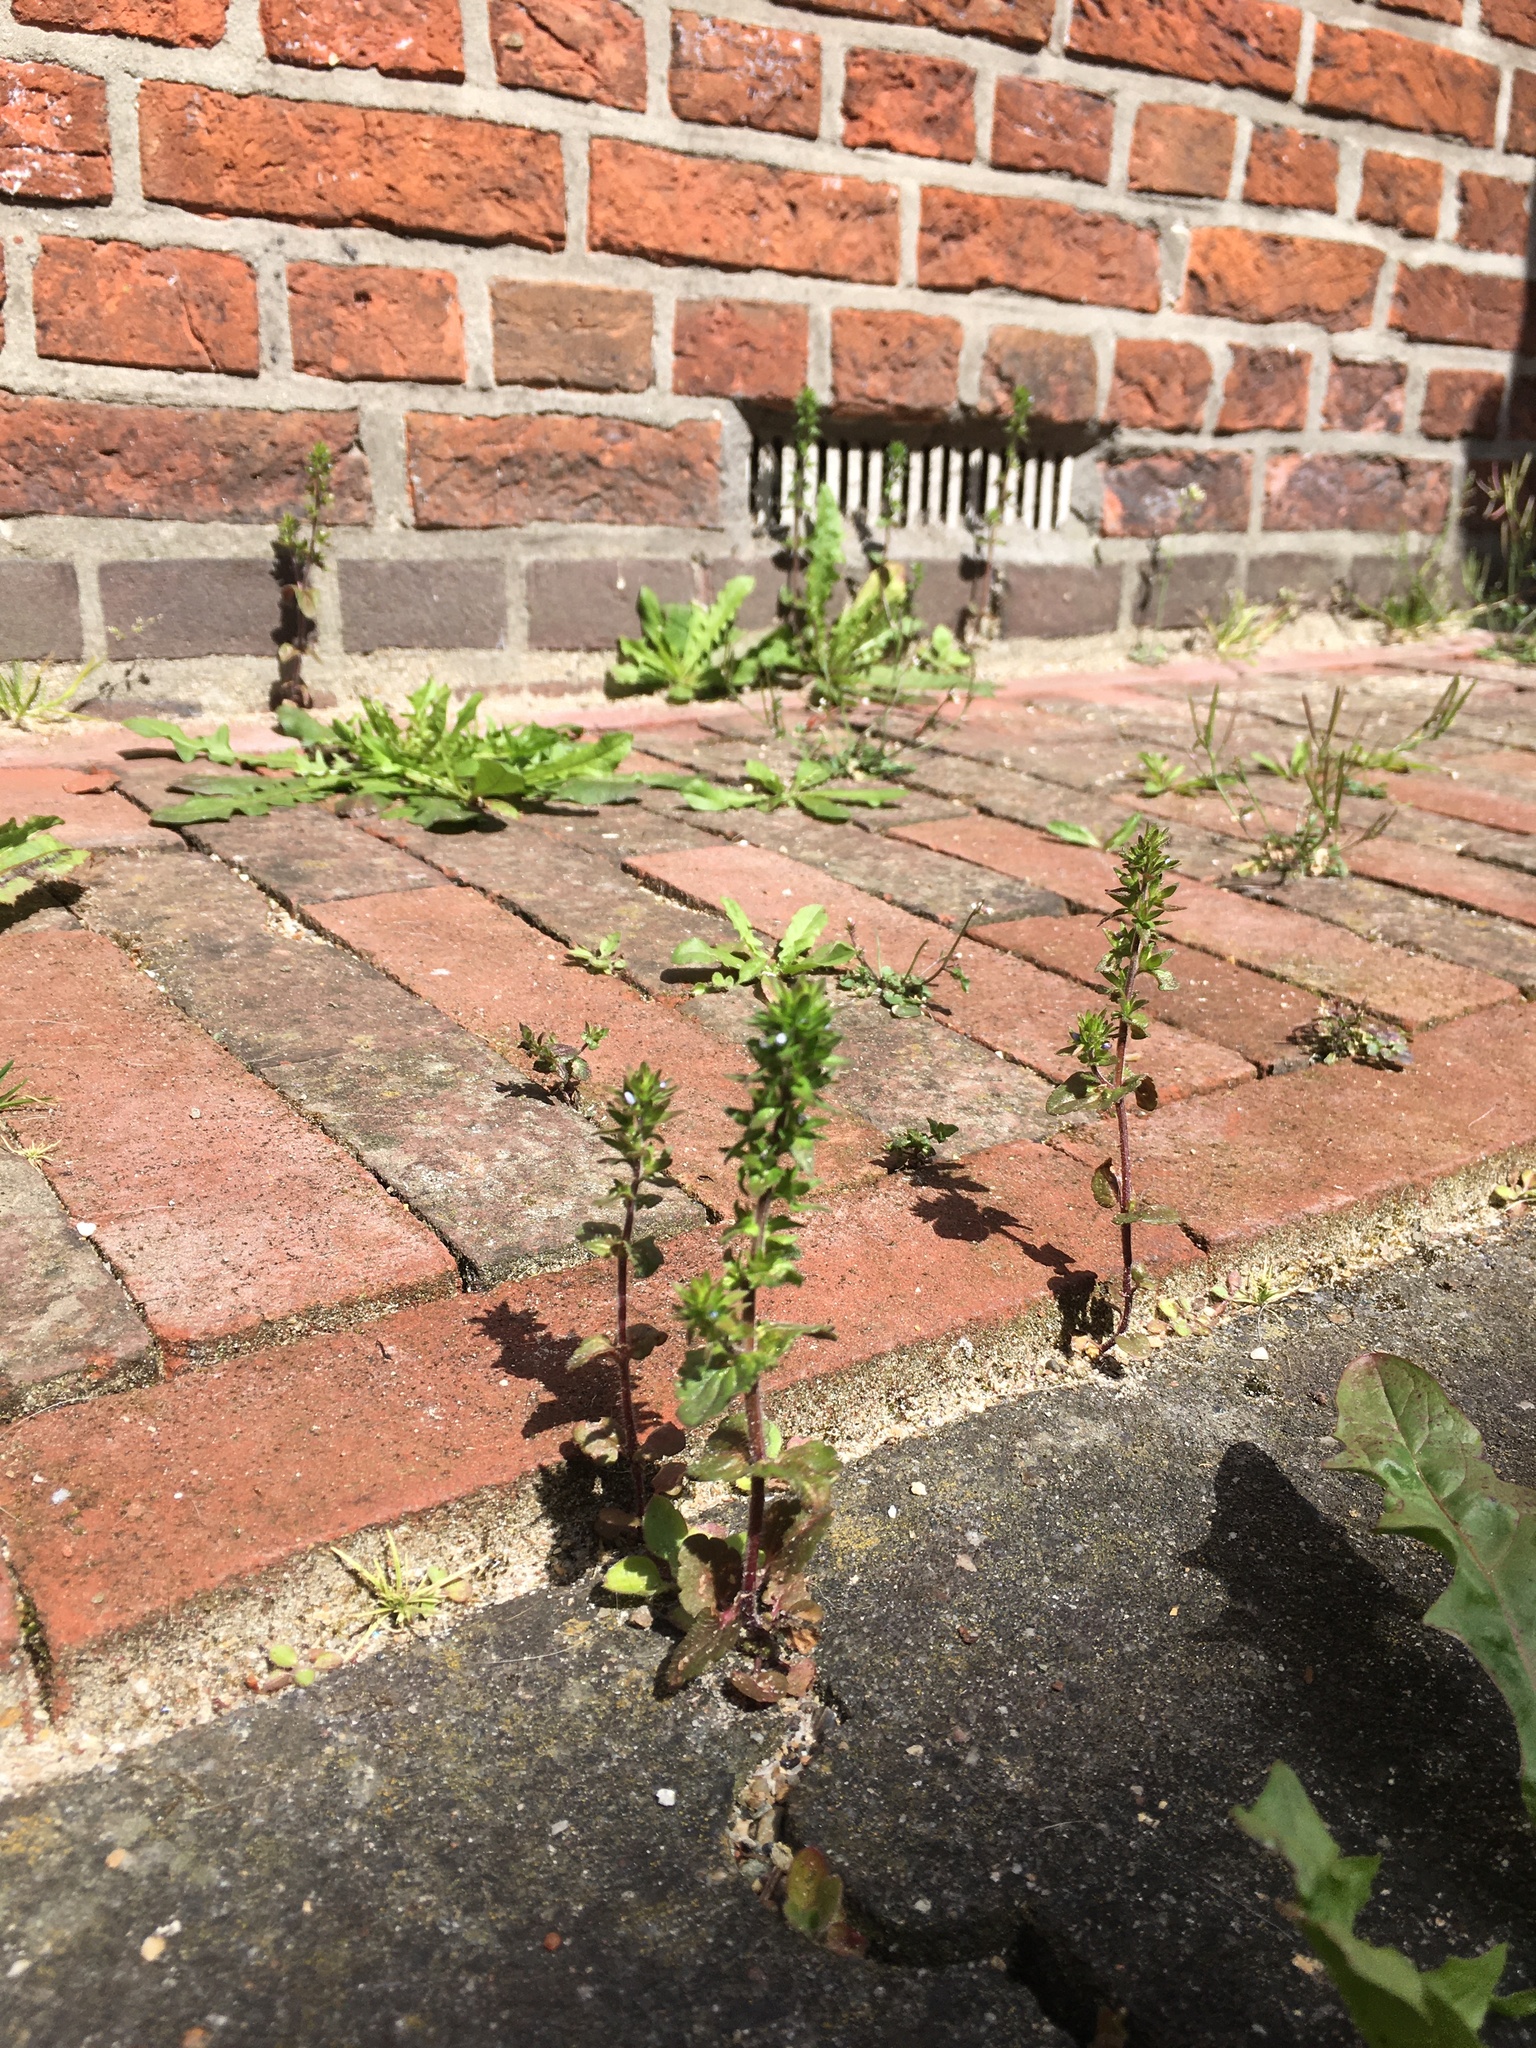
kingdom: Plantae
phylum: Tracheophyta
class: Magnoliopsida
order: Lamiales
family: Plantaginaceae
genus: Veronica
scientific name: Veronica arvensis
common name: Corn speedwell
